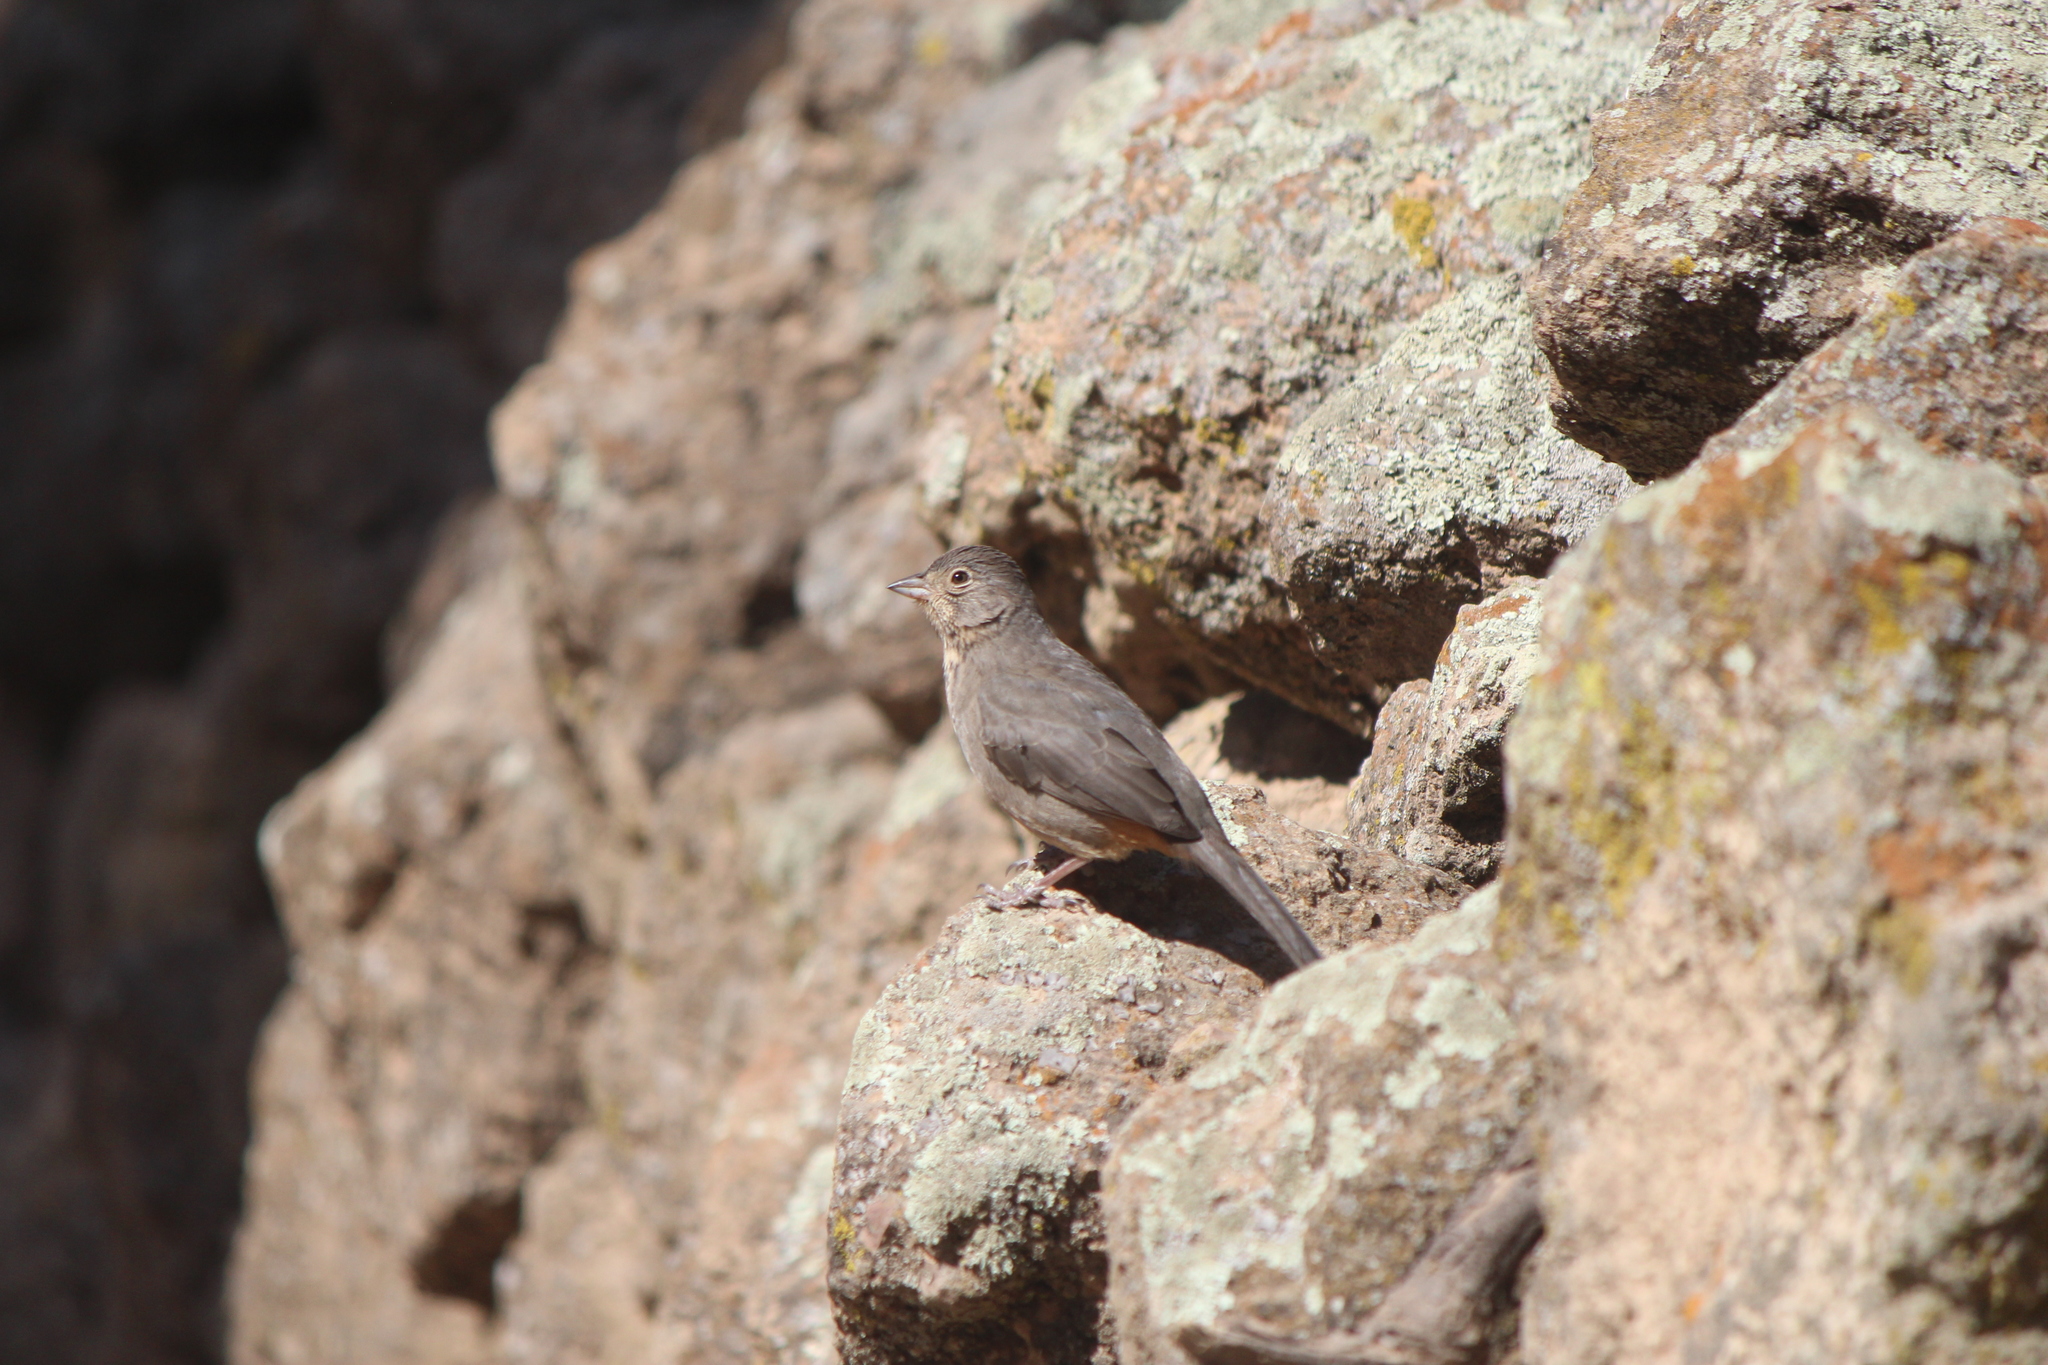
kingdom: Animalia
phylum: Chordata
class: Aves
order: Passeriformes
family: Passerellidae
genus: Melozone
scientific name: Melozone fusca
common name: Canyon towhee
